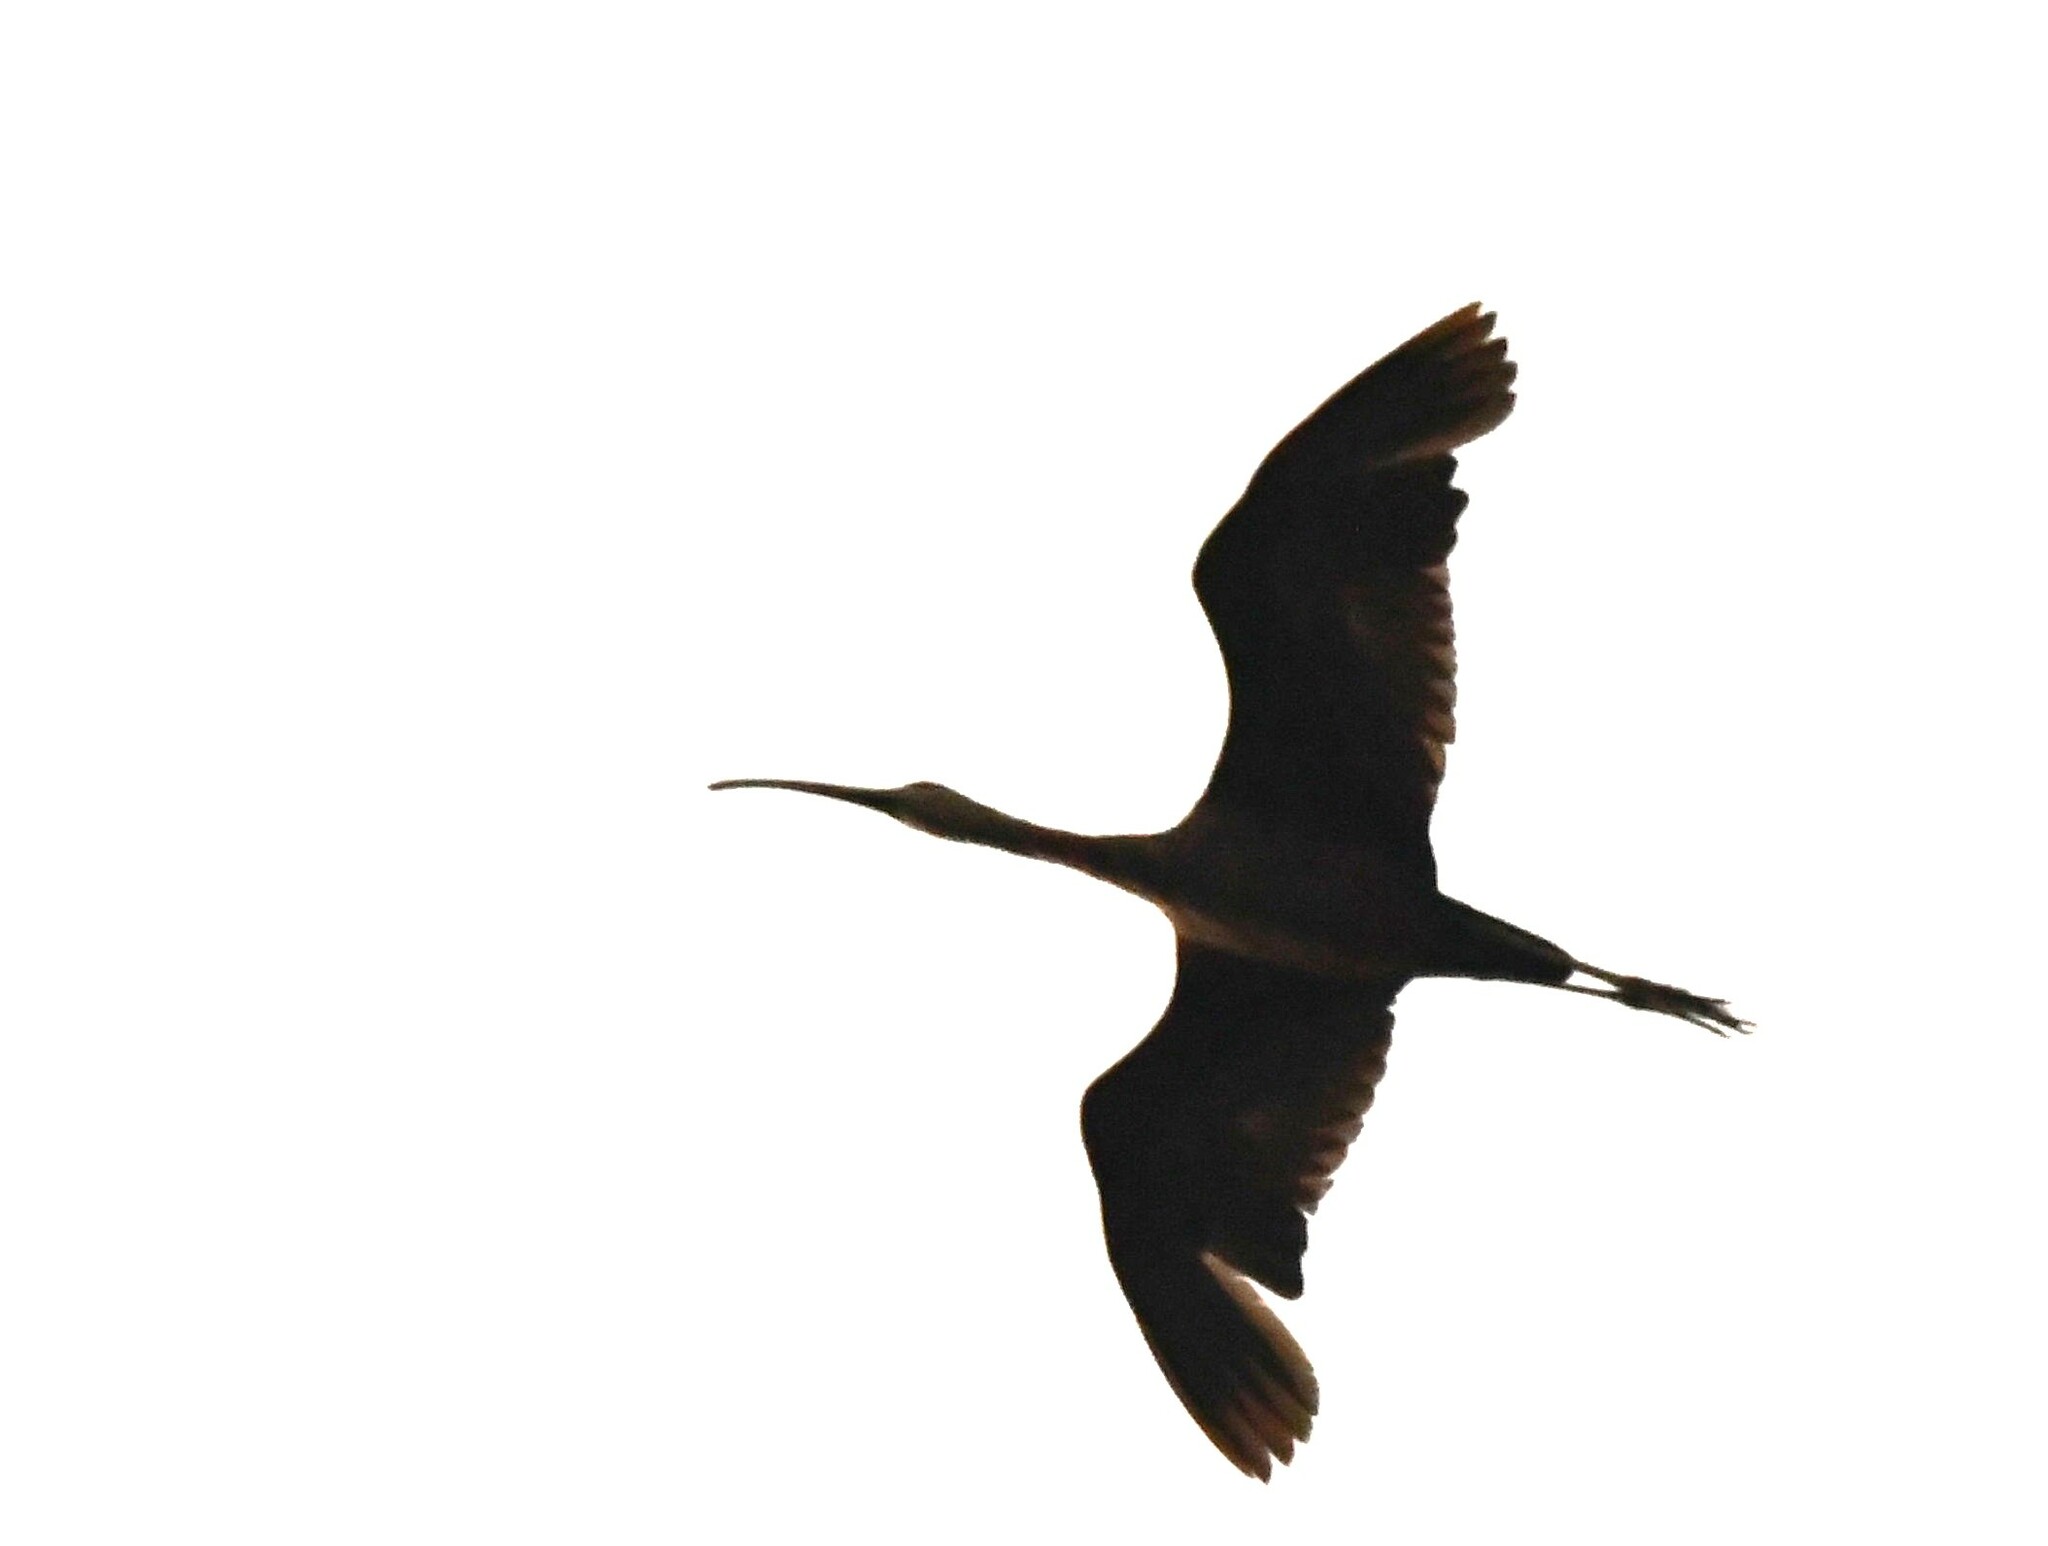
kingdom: Animalia
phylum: Chordata
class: Aves
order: Pelecaniformes
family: Threskiornithidae
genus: Plegadis
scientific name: Plegadis falcinellus
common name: Glossy ibis
